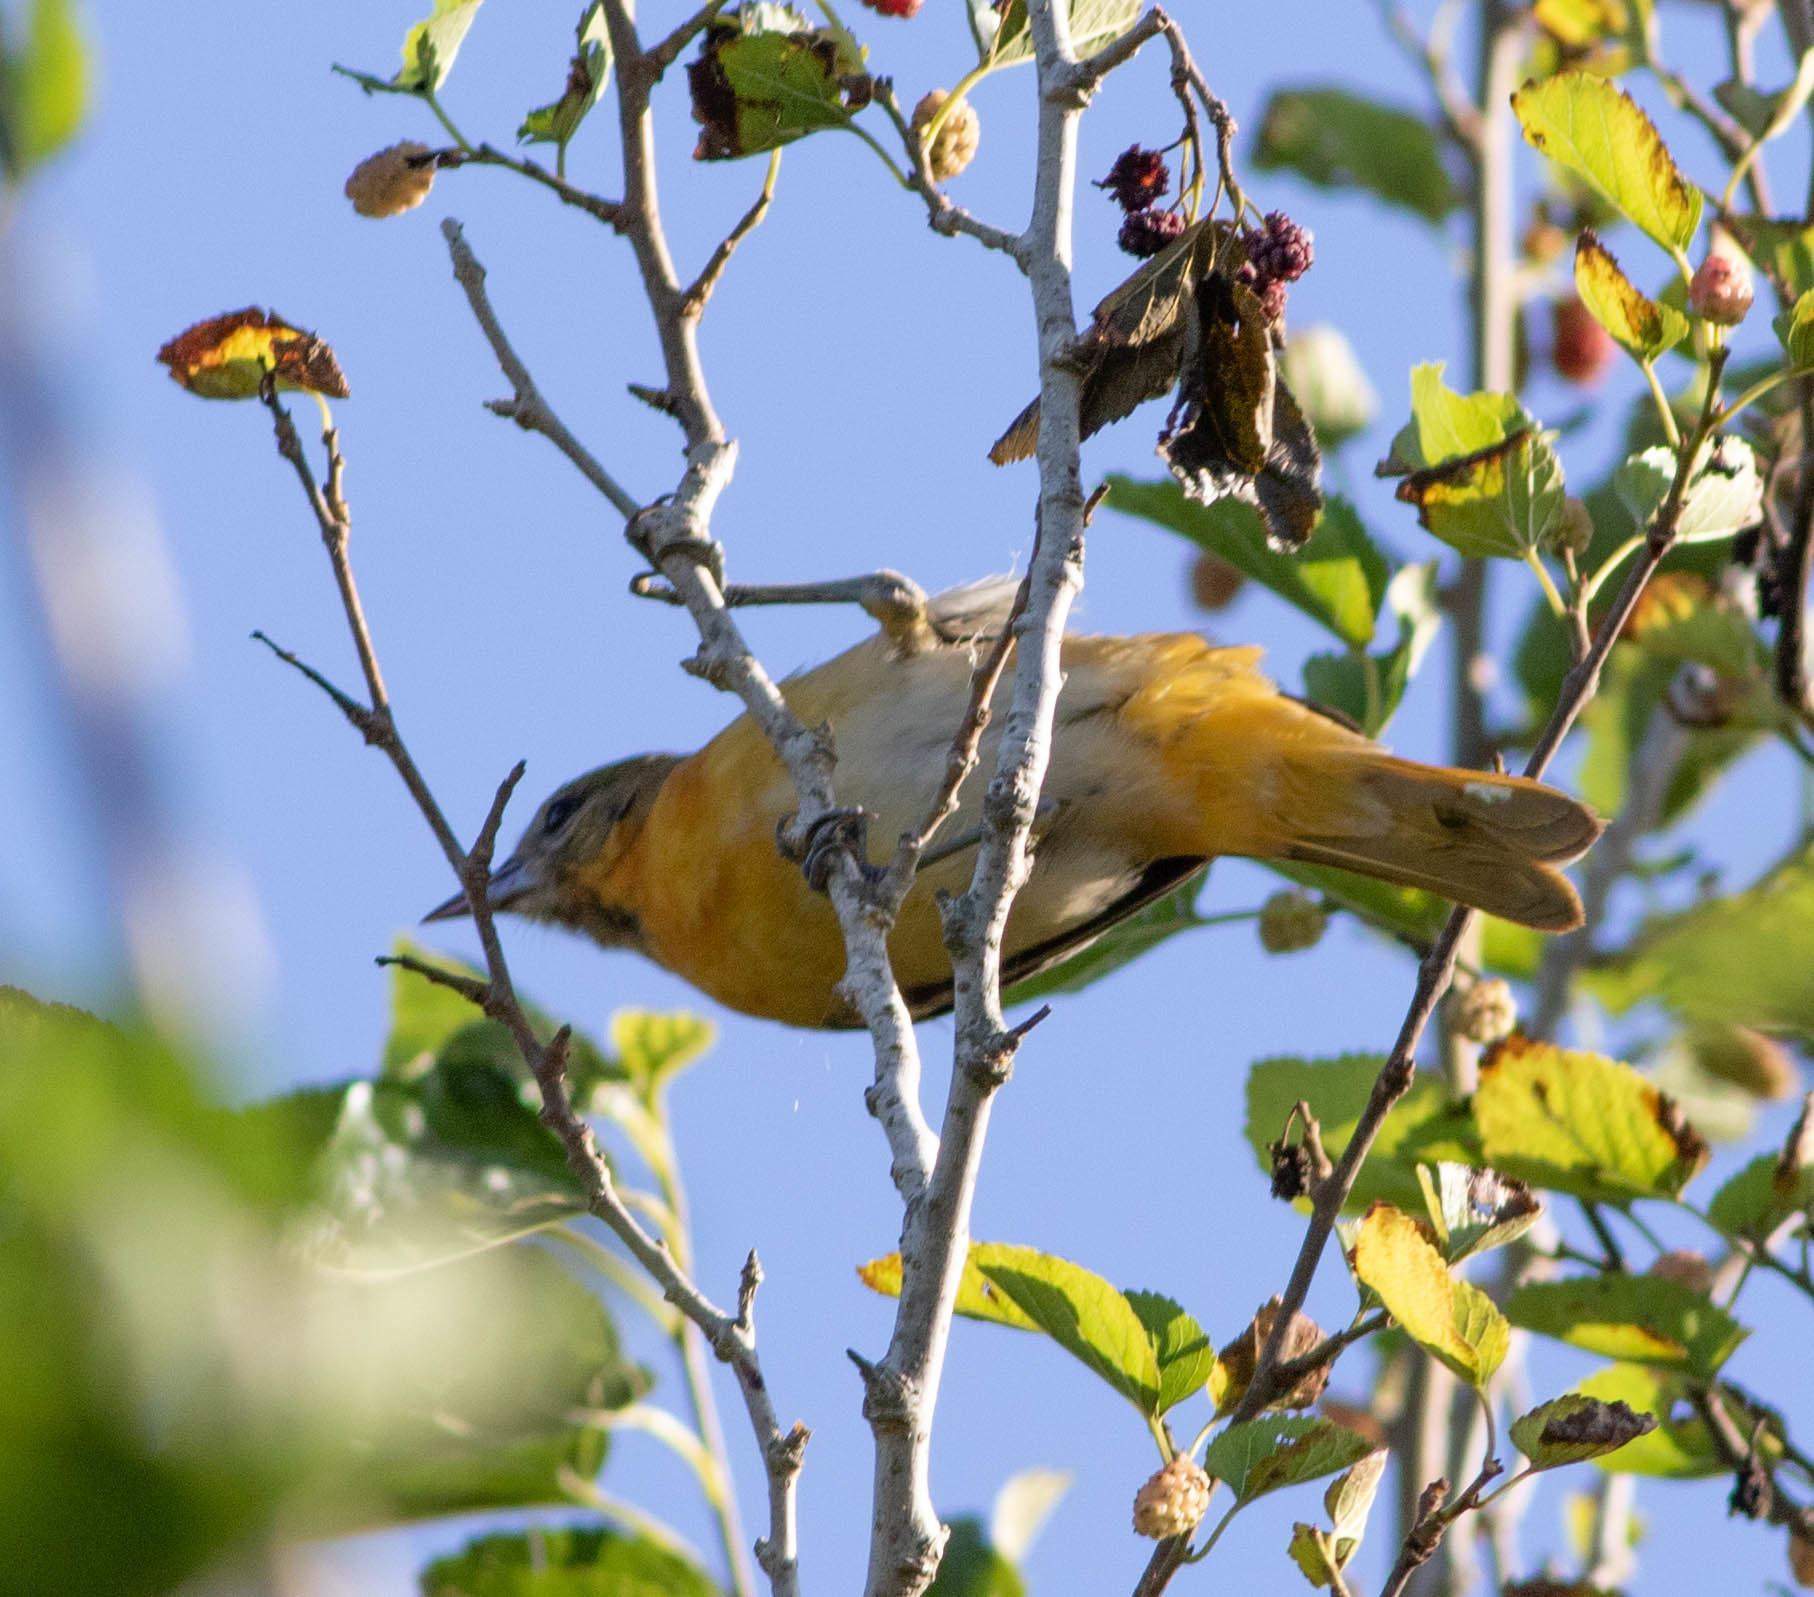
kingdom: Animalia
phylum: Chordata
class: Aves
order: Passeriformes
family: Icteridae
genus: Icterus
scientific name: Icterus galbula
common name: Baltimore oriole
